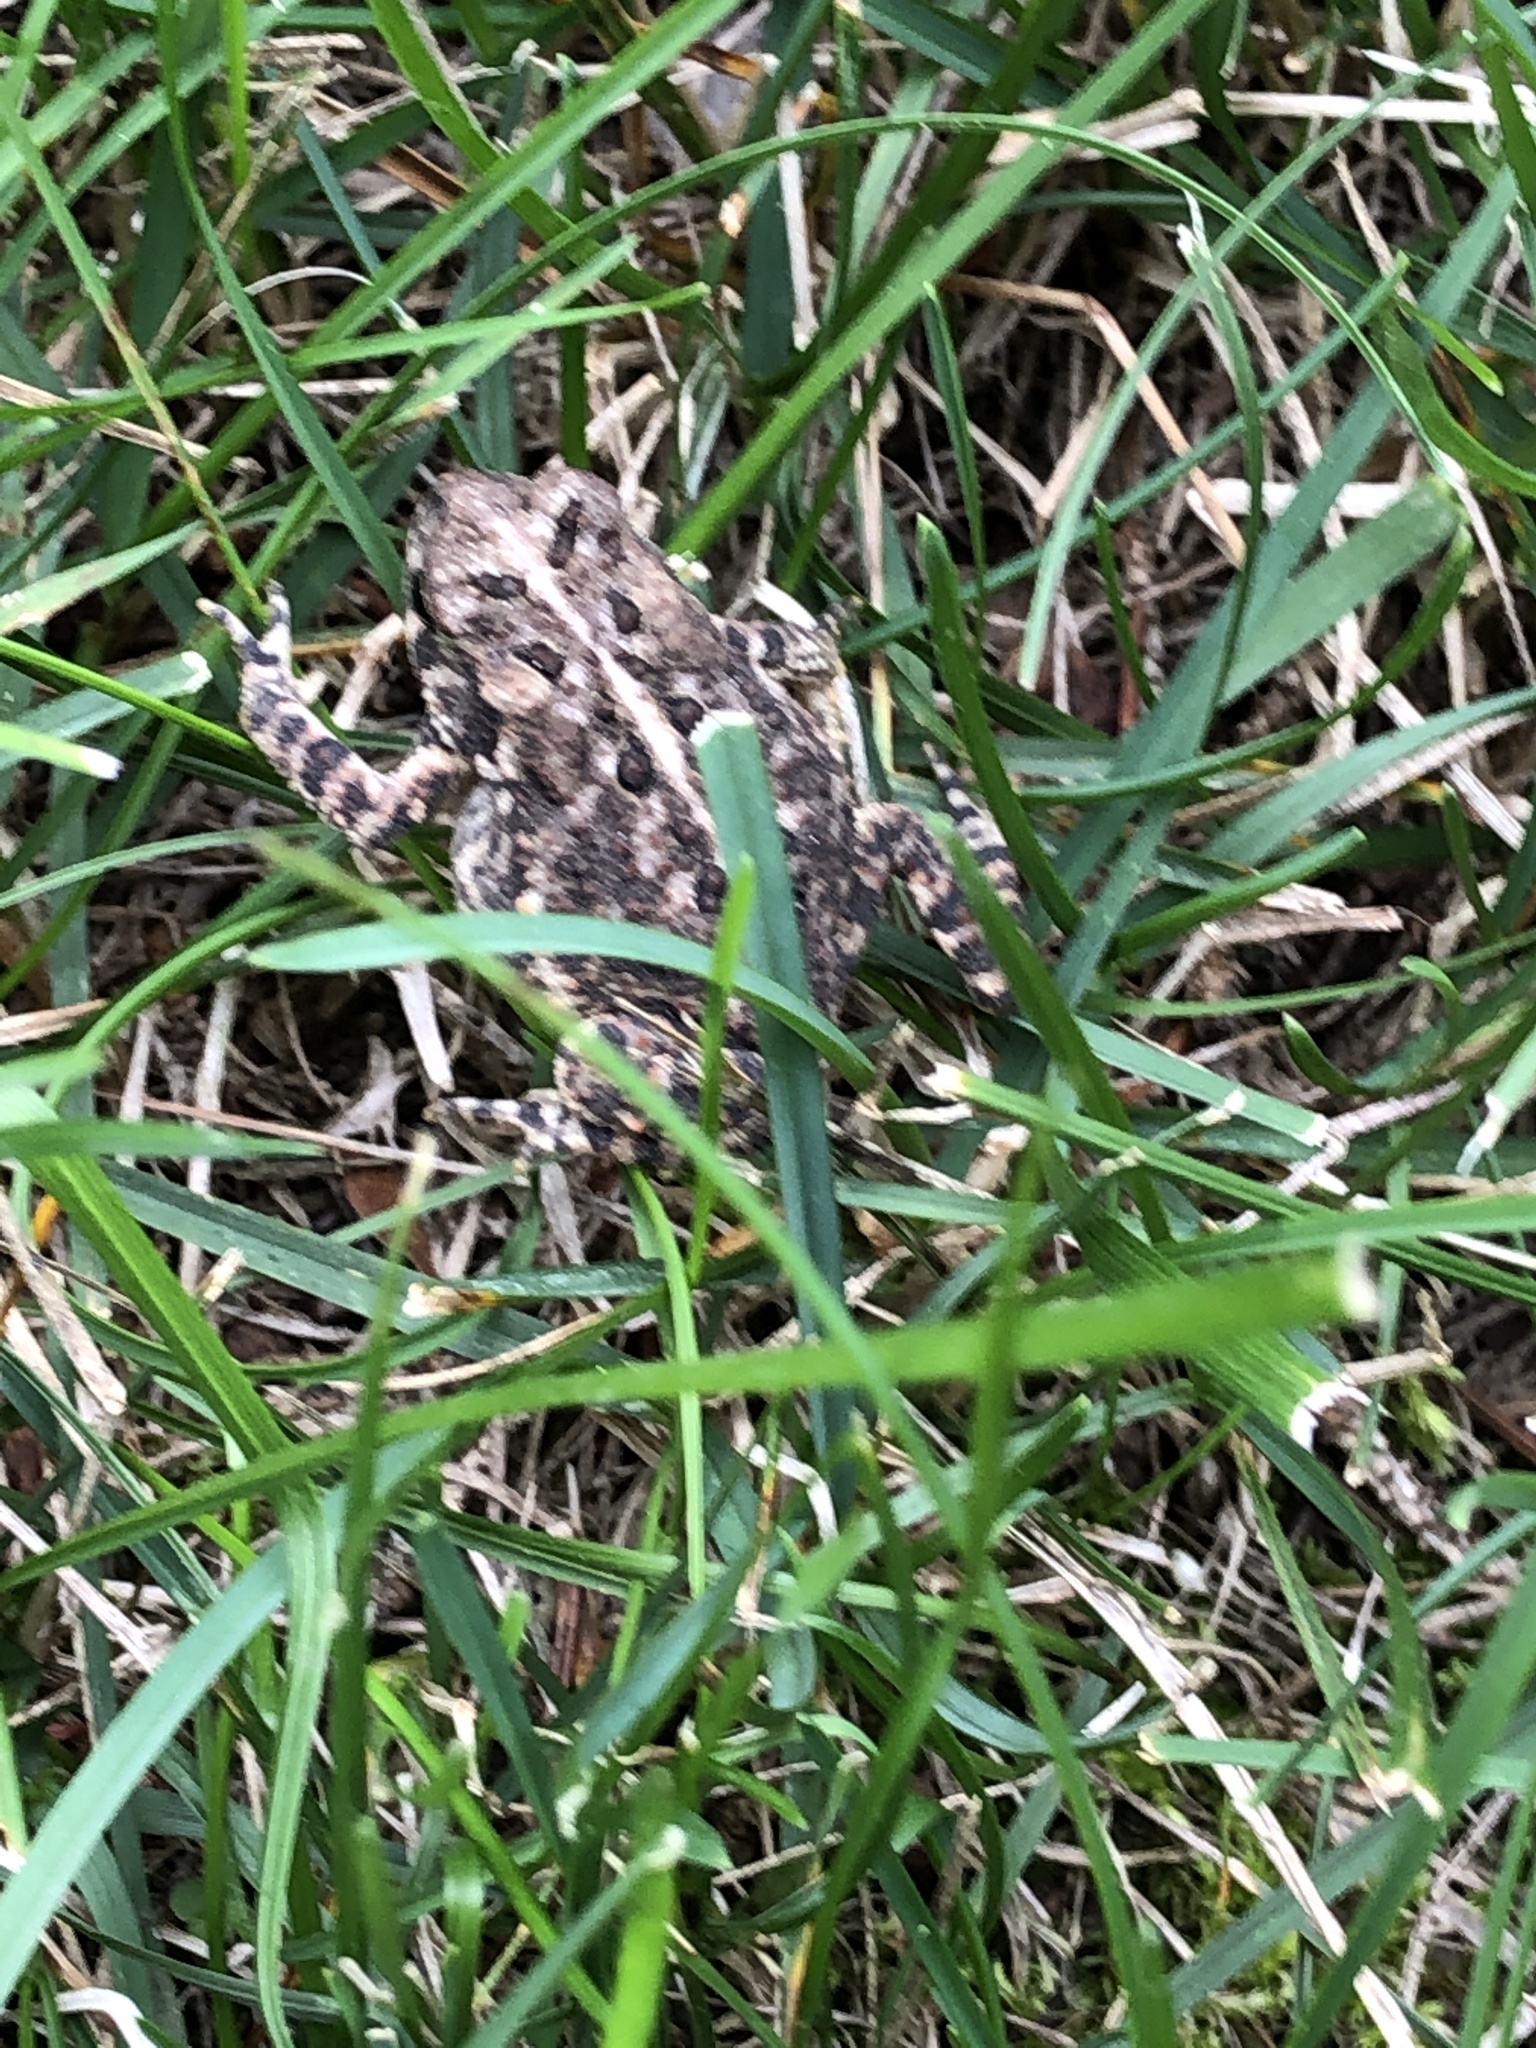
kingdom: Animalia
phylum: Chordata
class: Amphibia
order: Anura
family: Bufonidae
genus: Anaxyrus
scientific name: Anaxyrus americanus
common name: American toad
